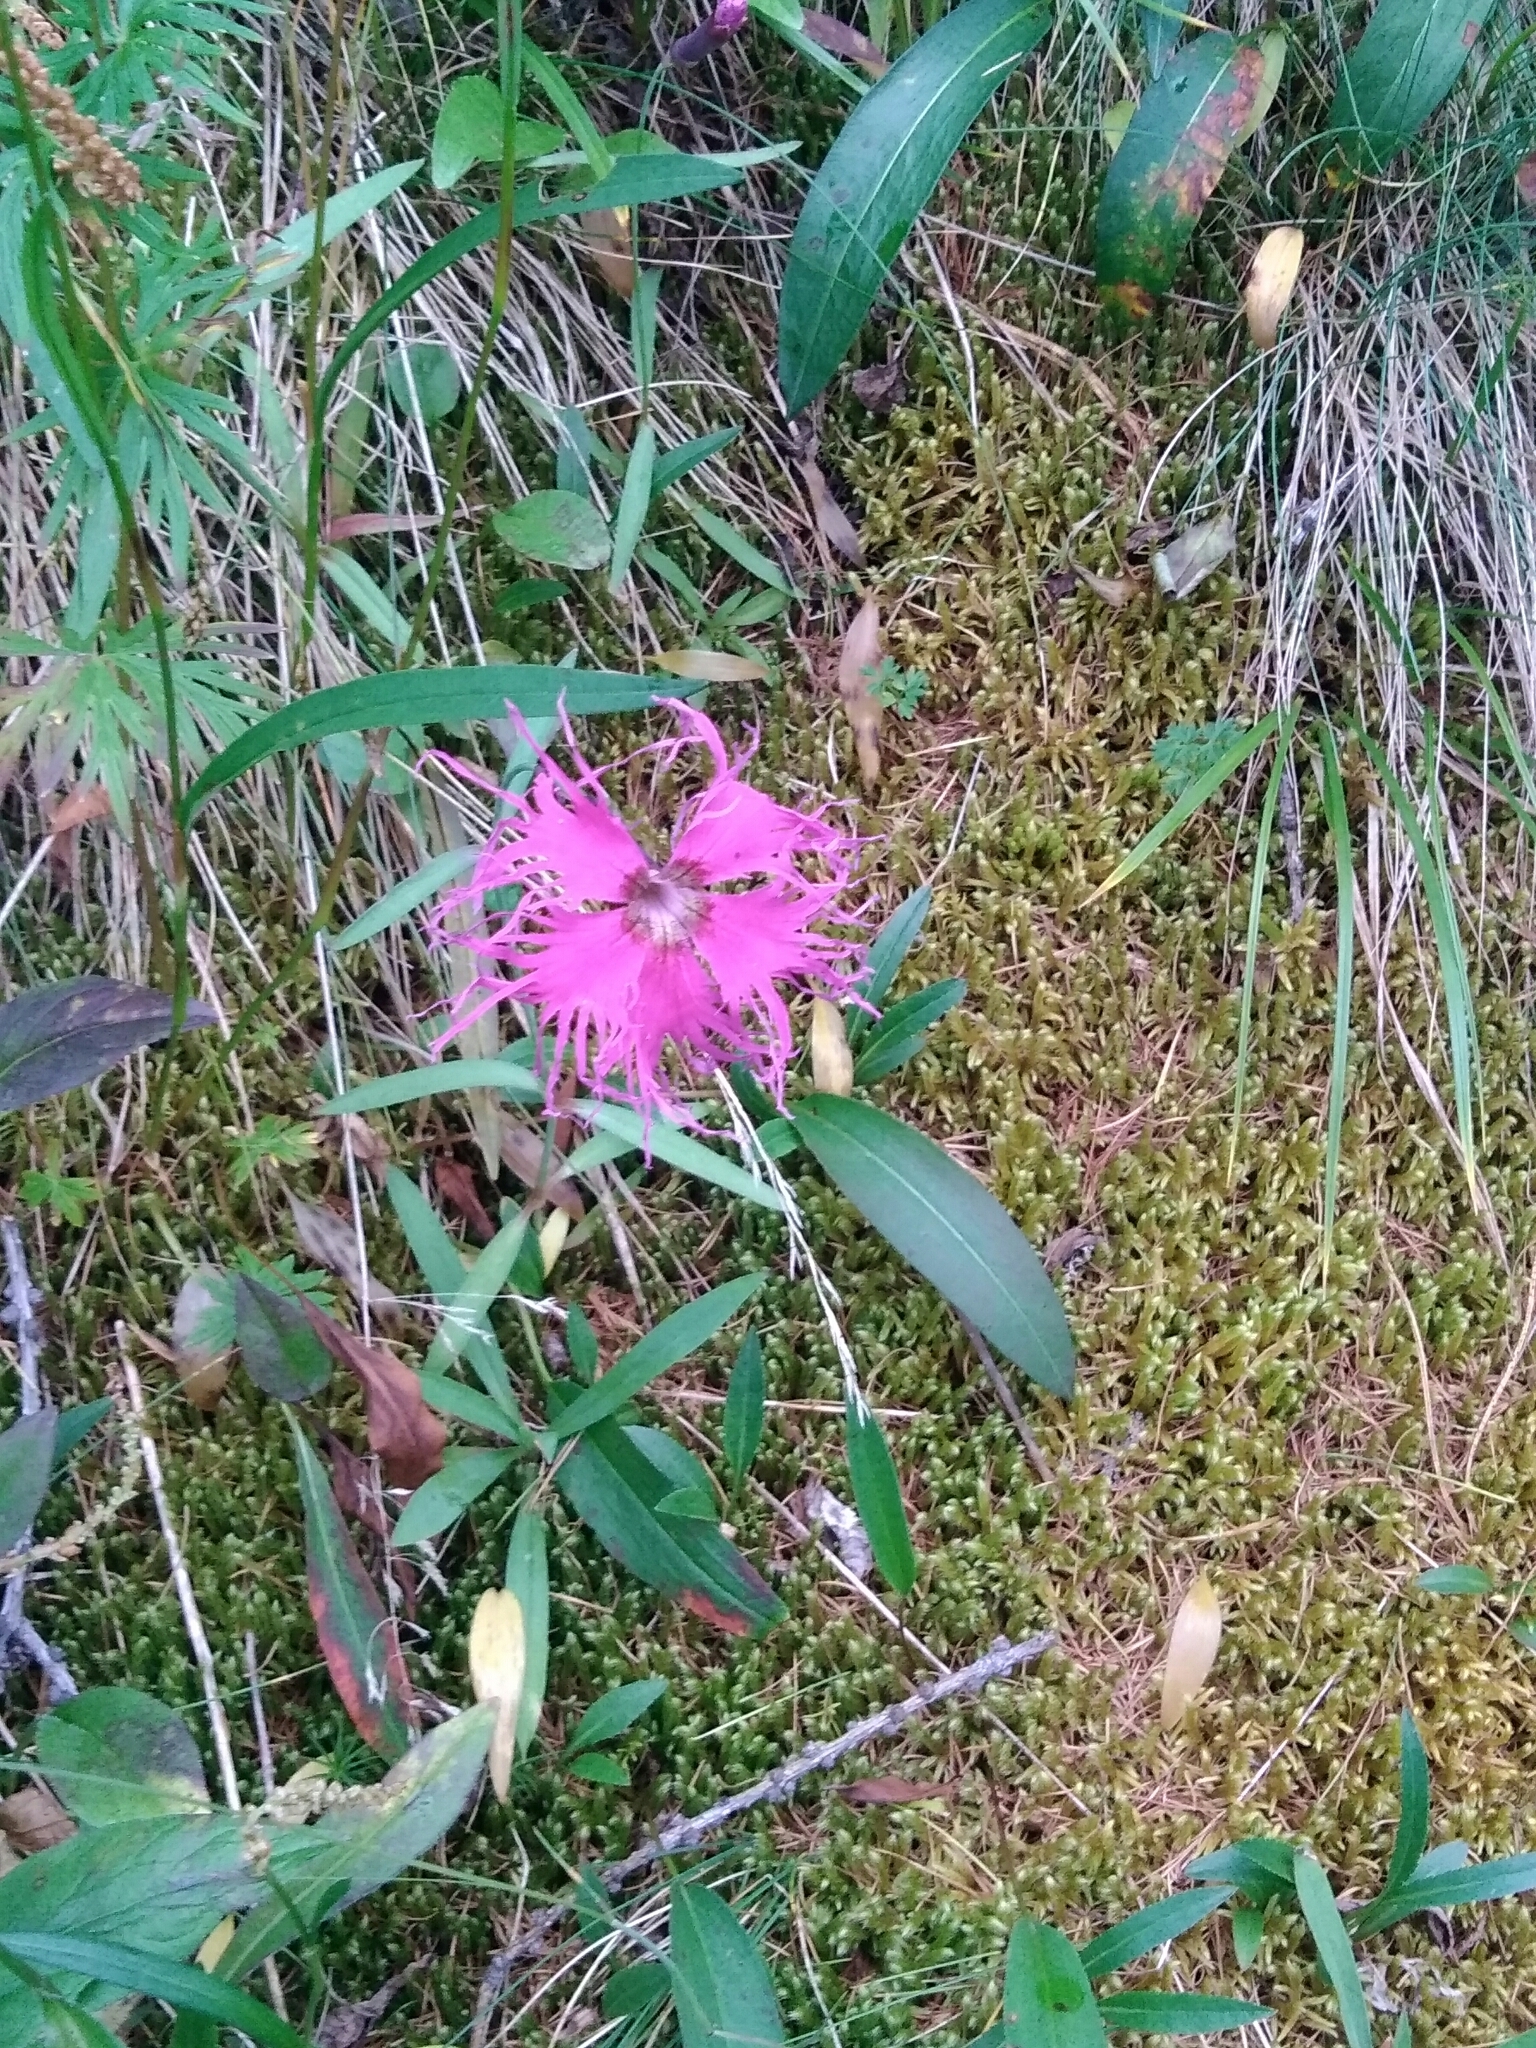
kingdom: Plantae
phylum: Tracheophyta
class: Magnoliopsida
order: Caryophyllales
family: Caryophyllaceae
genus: Dianthus
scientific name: Dianthus superbus
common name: Fringed pink
